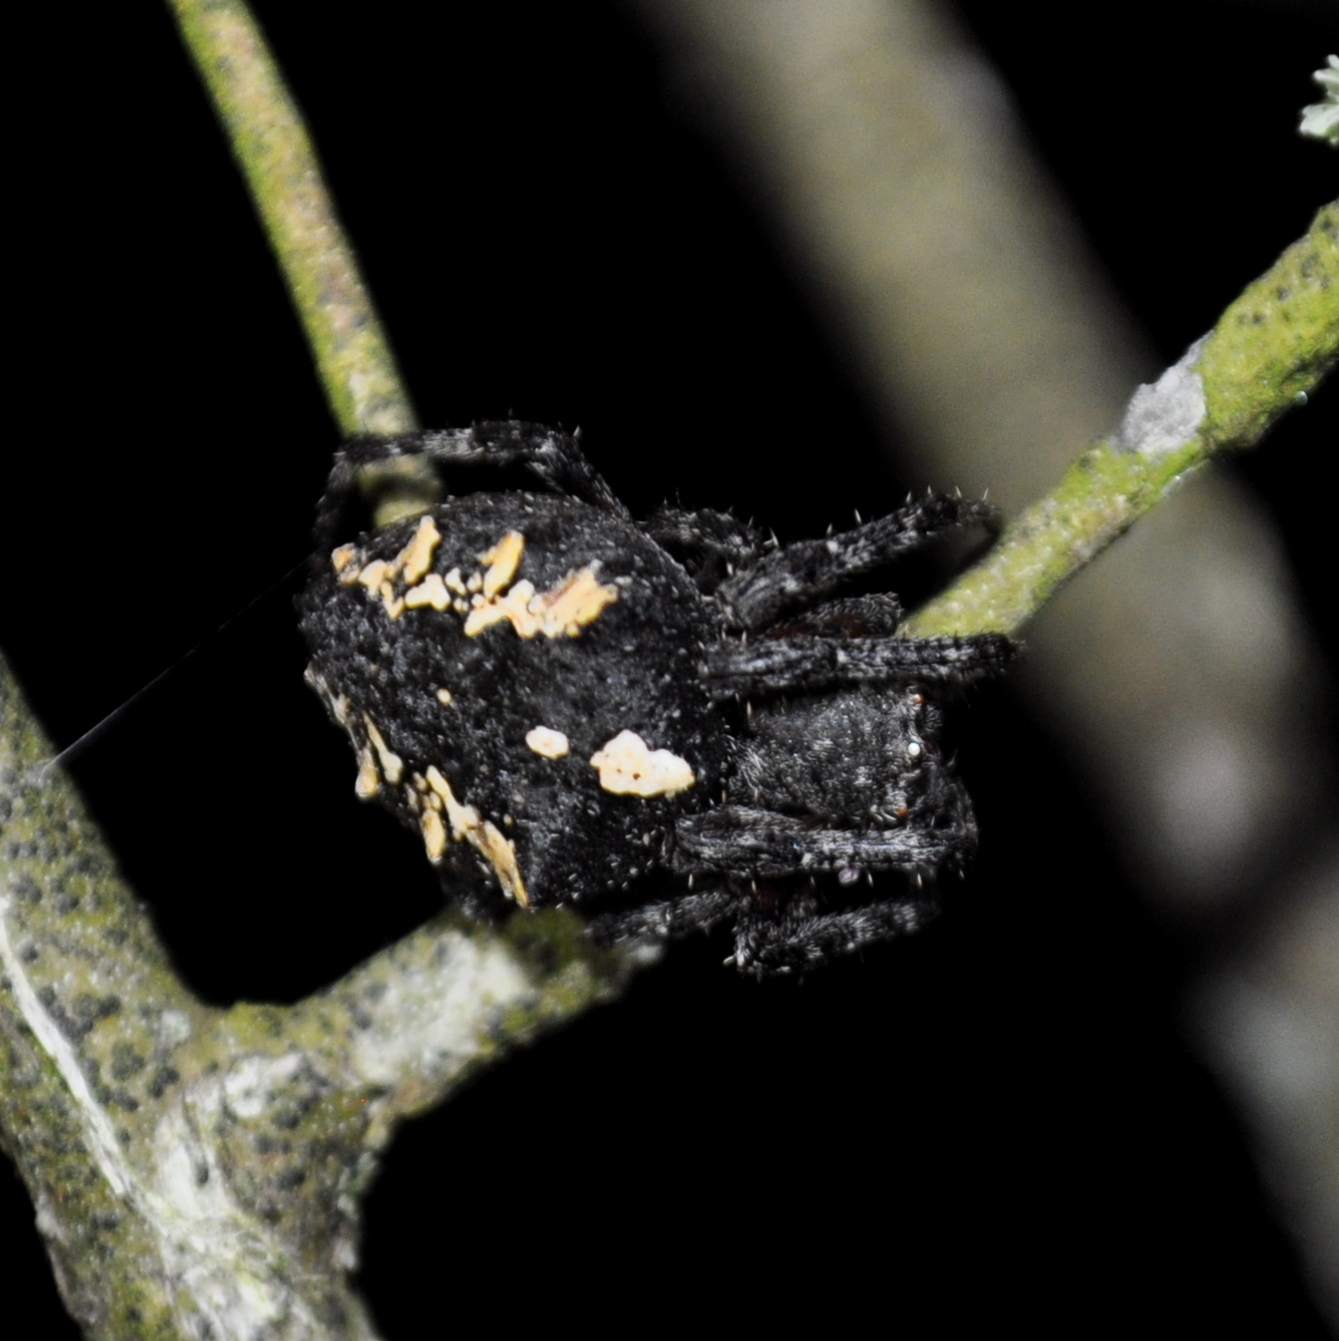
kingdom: Animalia
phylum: Arthropoda
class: Arachnida
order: Araneae
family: Araneidae
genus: Parawixia
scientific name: Parawixia undulata
